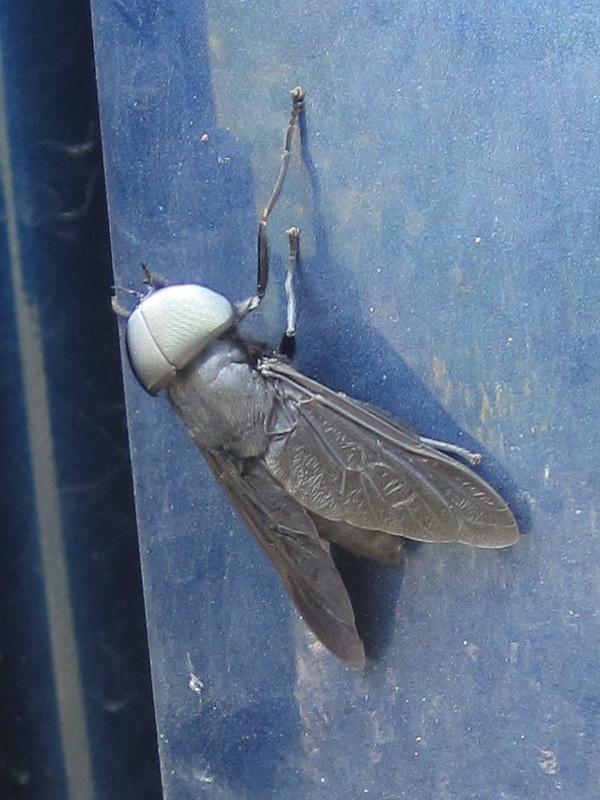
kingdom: Animalia
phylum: Arthropoda
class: Insecta
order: Diptera
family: Tabanidae
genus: Tabanus
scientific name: Tabanus atratus
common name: Black horse fly
